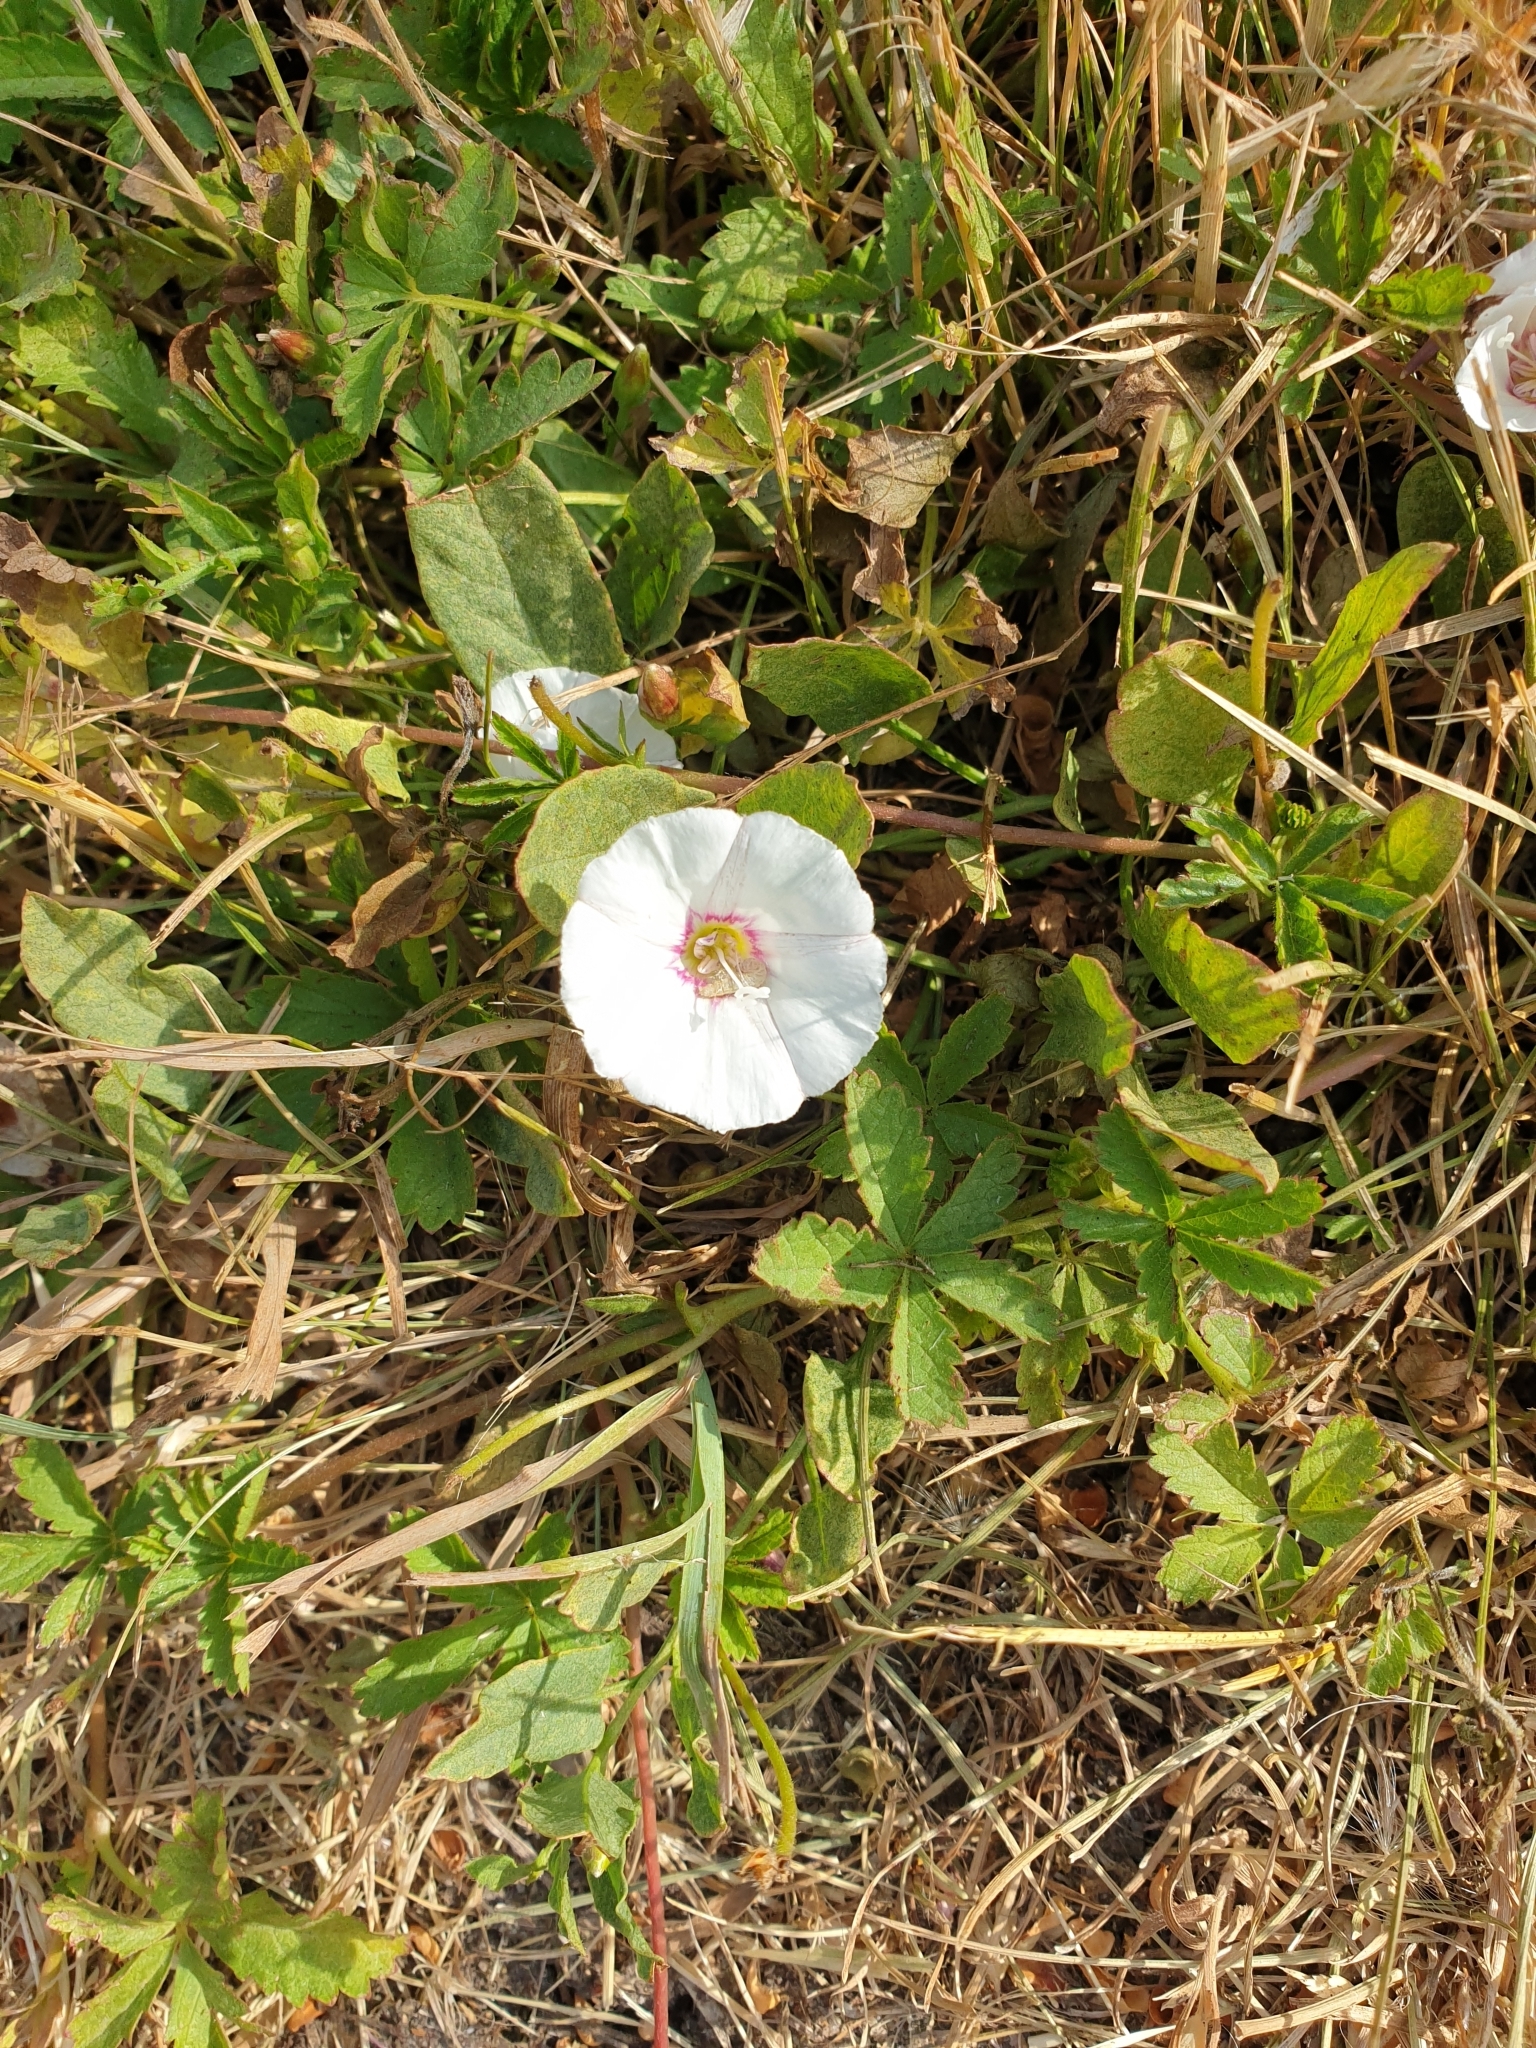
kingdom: Plantae
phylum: Tracheophyta
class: Magnoliopsida
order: Solanales
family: Convolvulaceae
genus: Convolvulus
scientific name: Convolvulus arvensis
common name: Field bindweed
